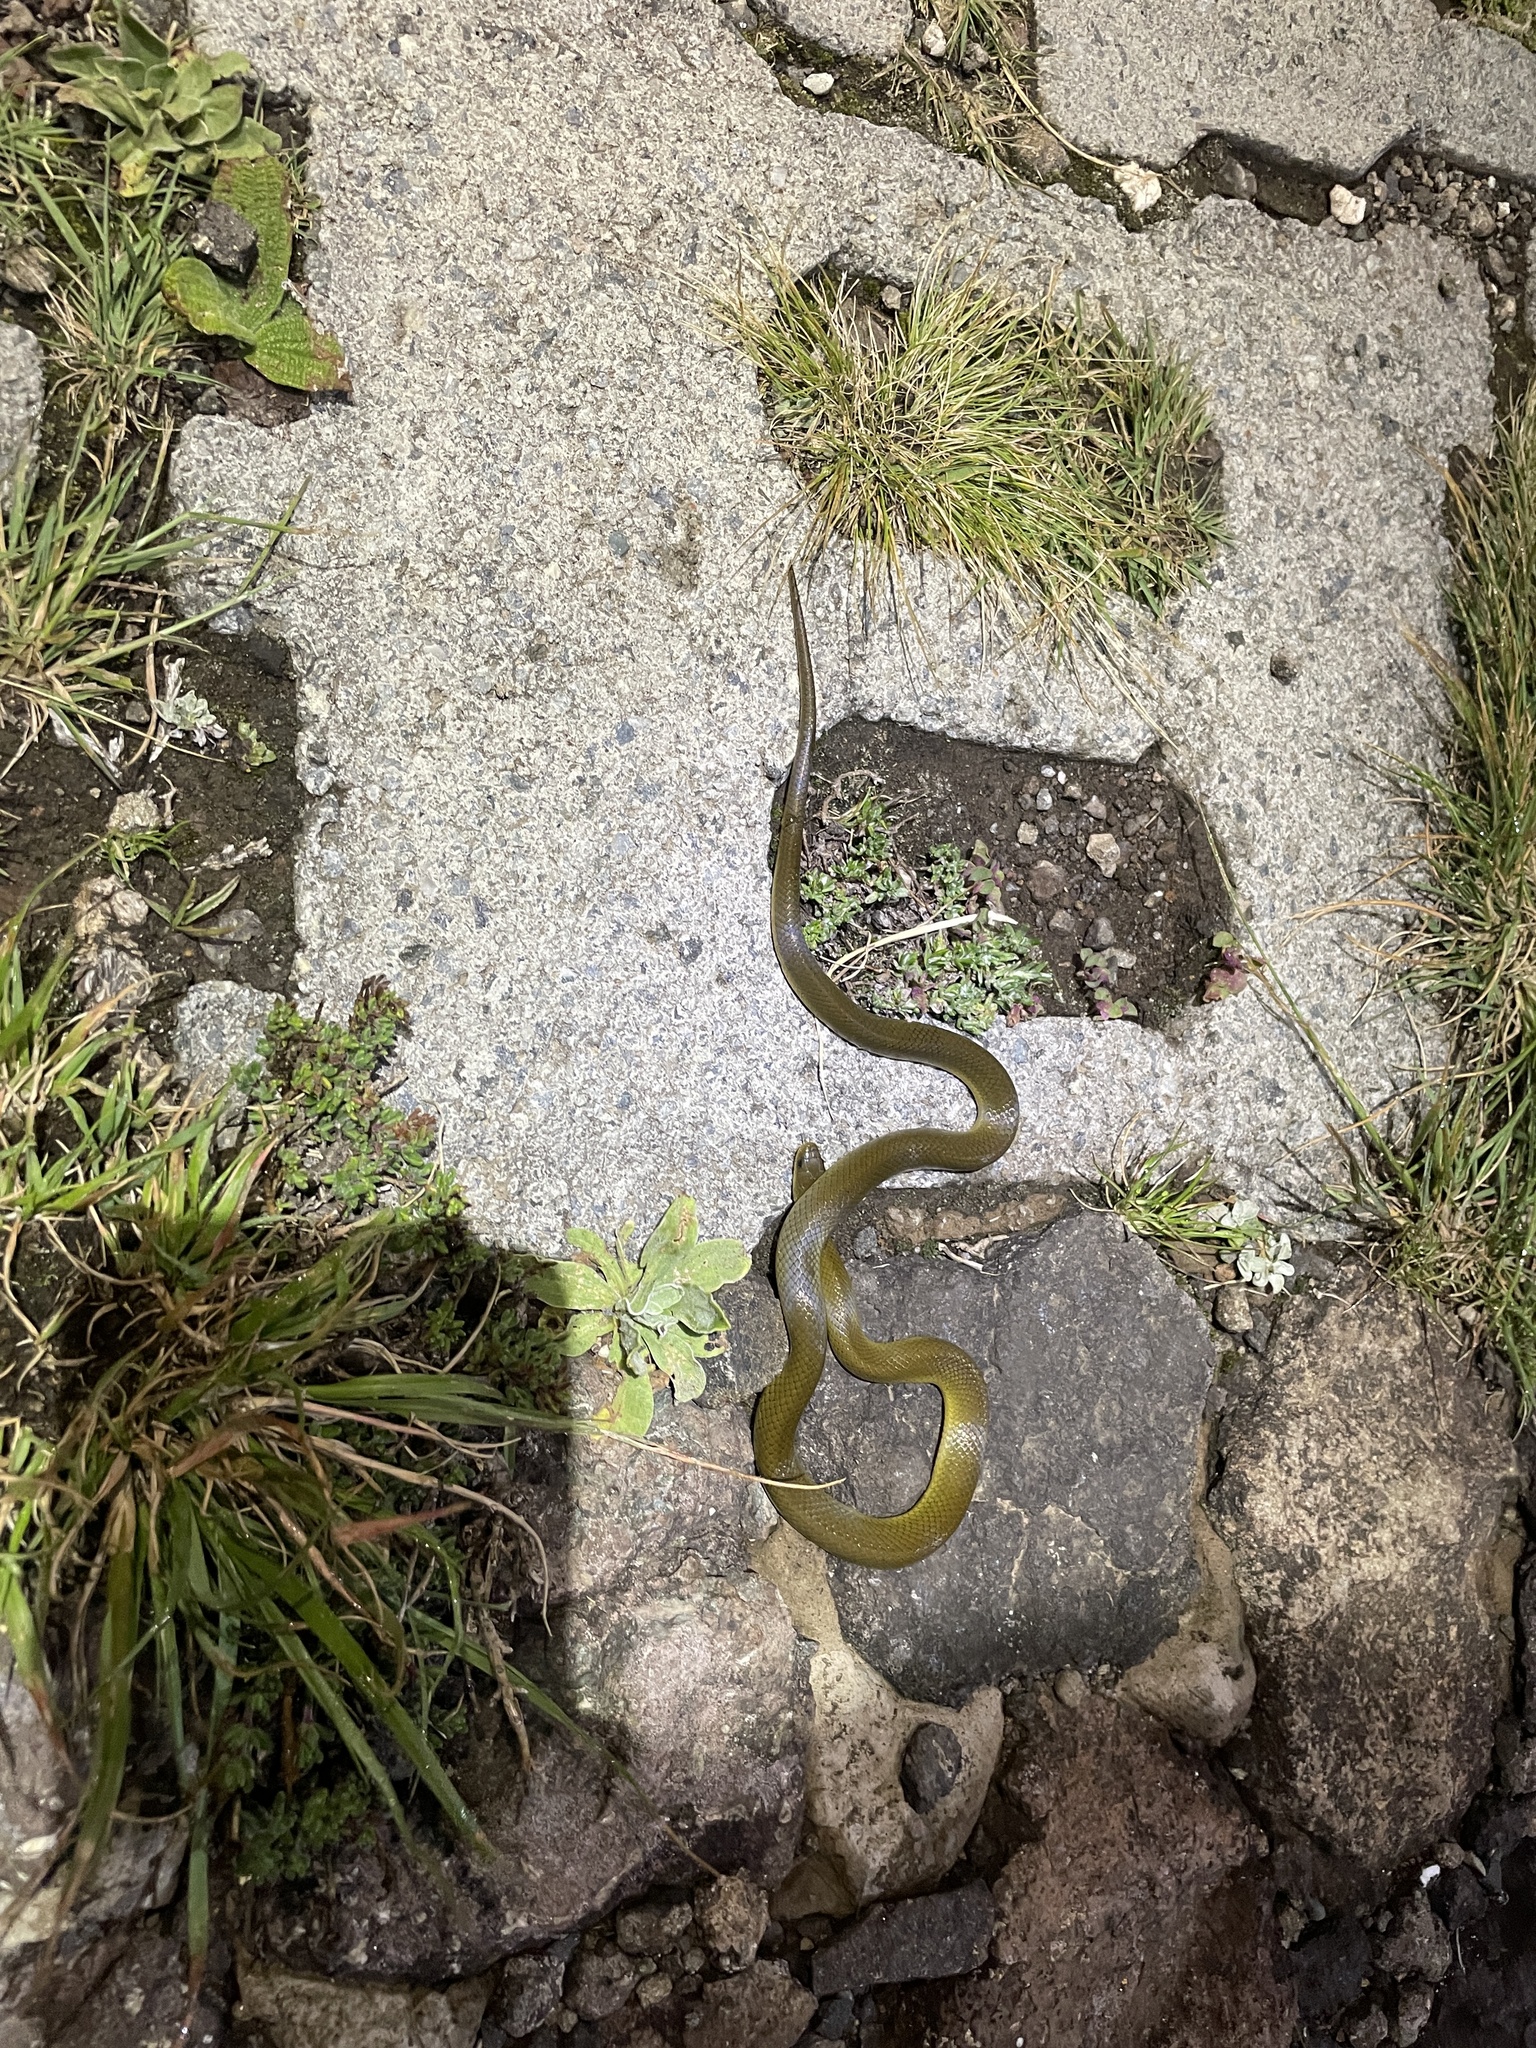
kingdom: Animalia
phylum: Chordata
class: Squamata
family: Lamprophiidae
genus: Lamprophis
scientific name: Lamprophis fuscus
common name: Yellow-bellied house snake
